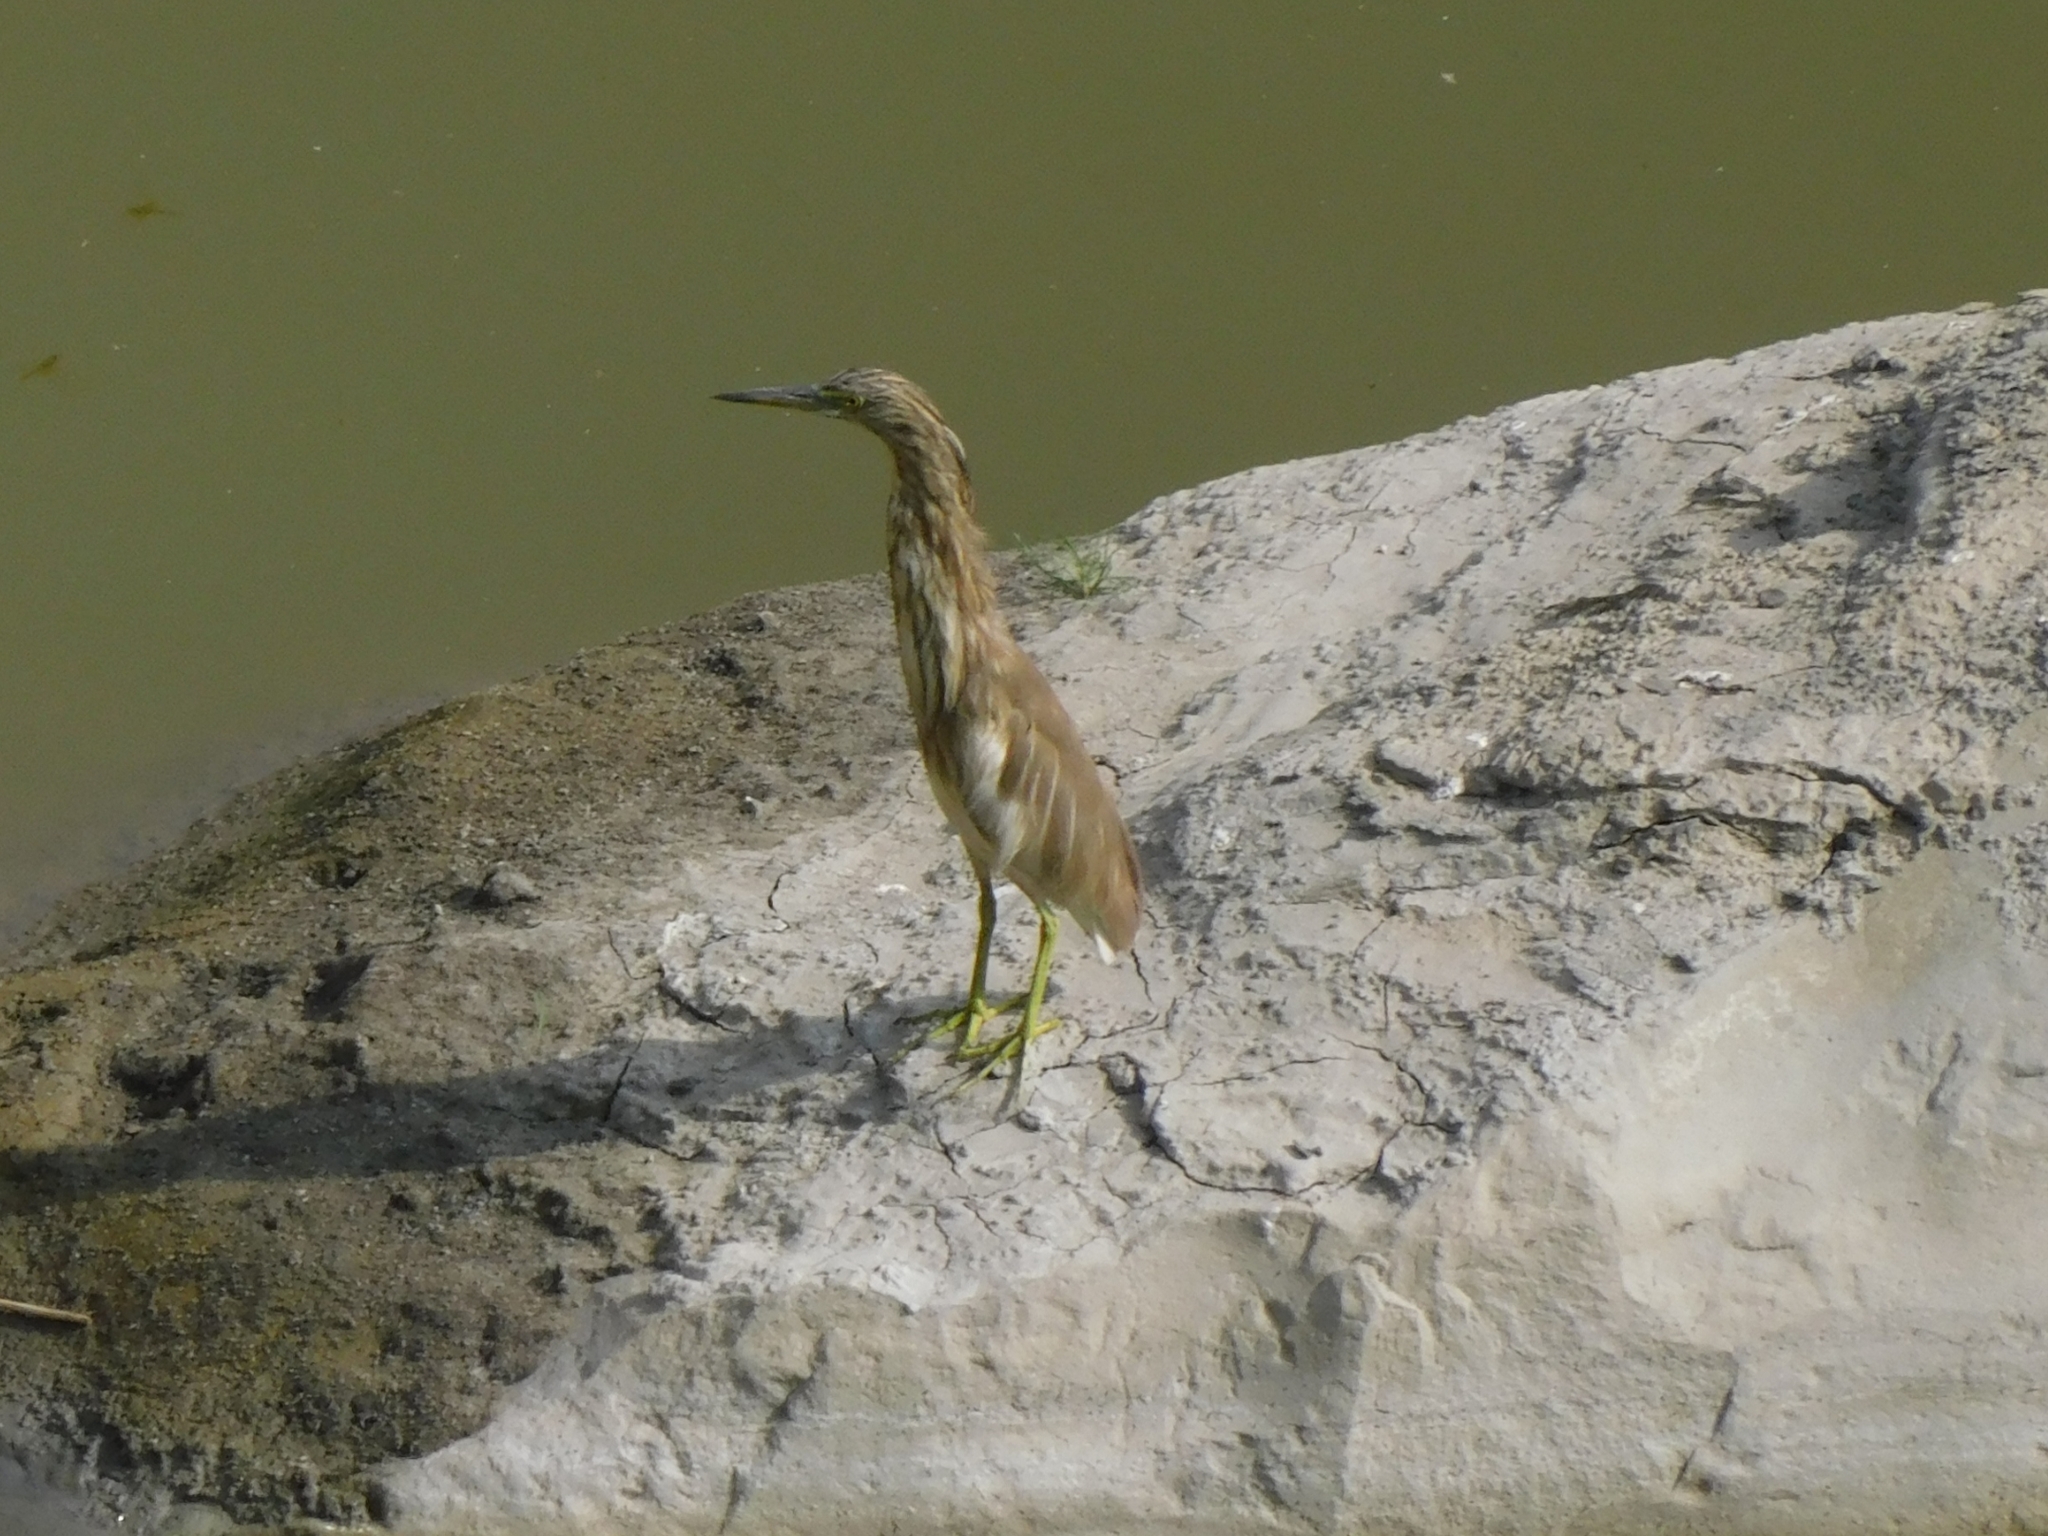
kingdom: Animalia
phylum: Chordata
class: Aves
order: Pelecaniformes
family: Ardeidae
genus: Ardeola
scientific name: Ardeola grayii
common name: Indian pond heron
